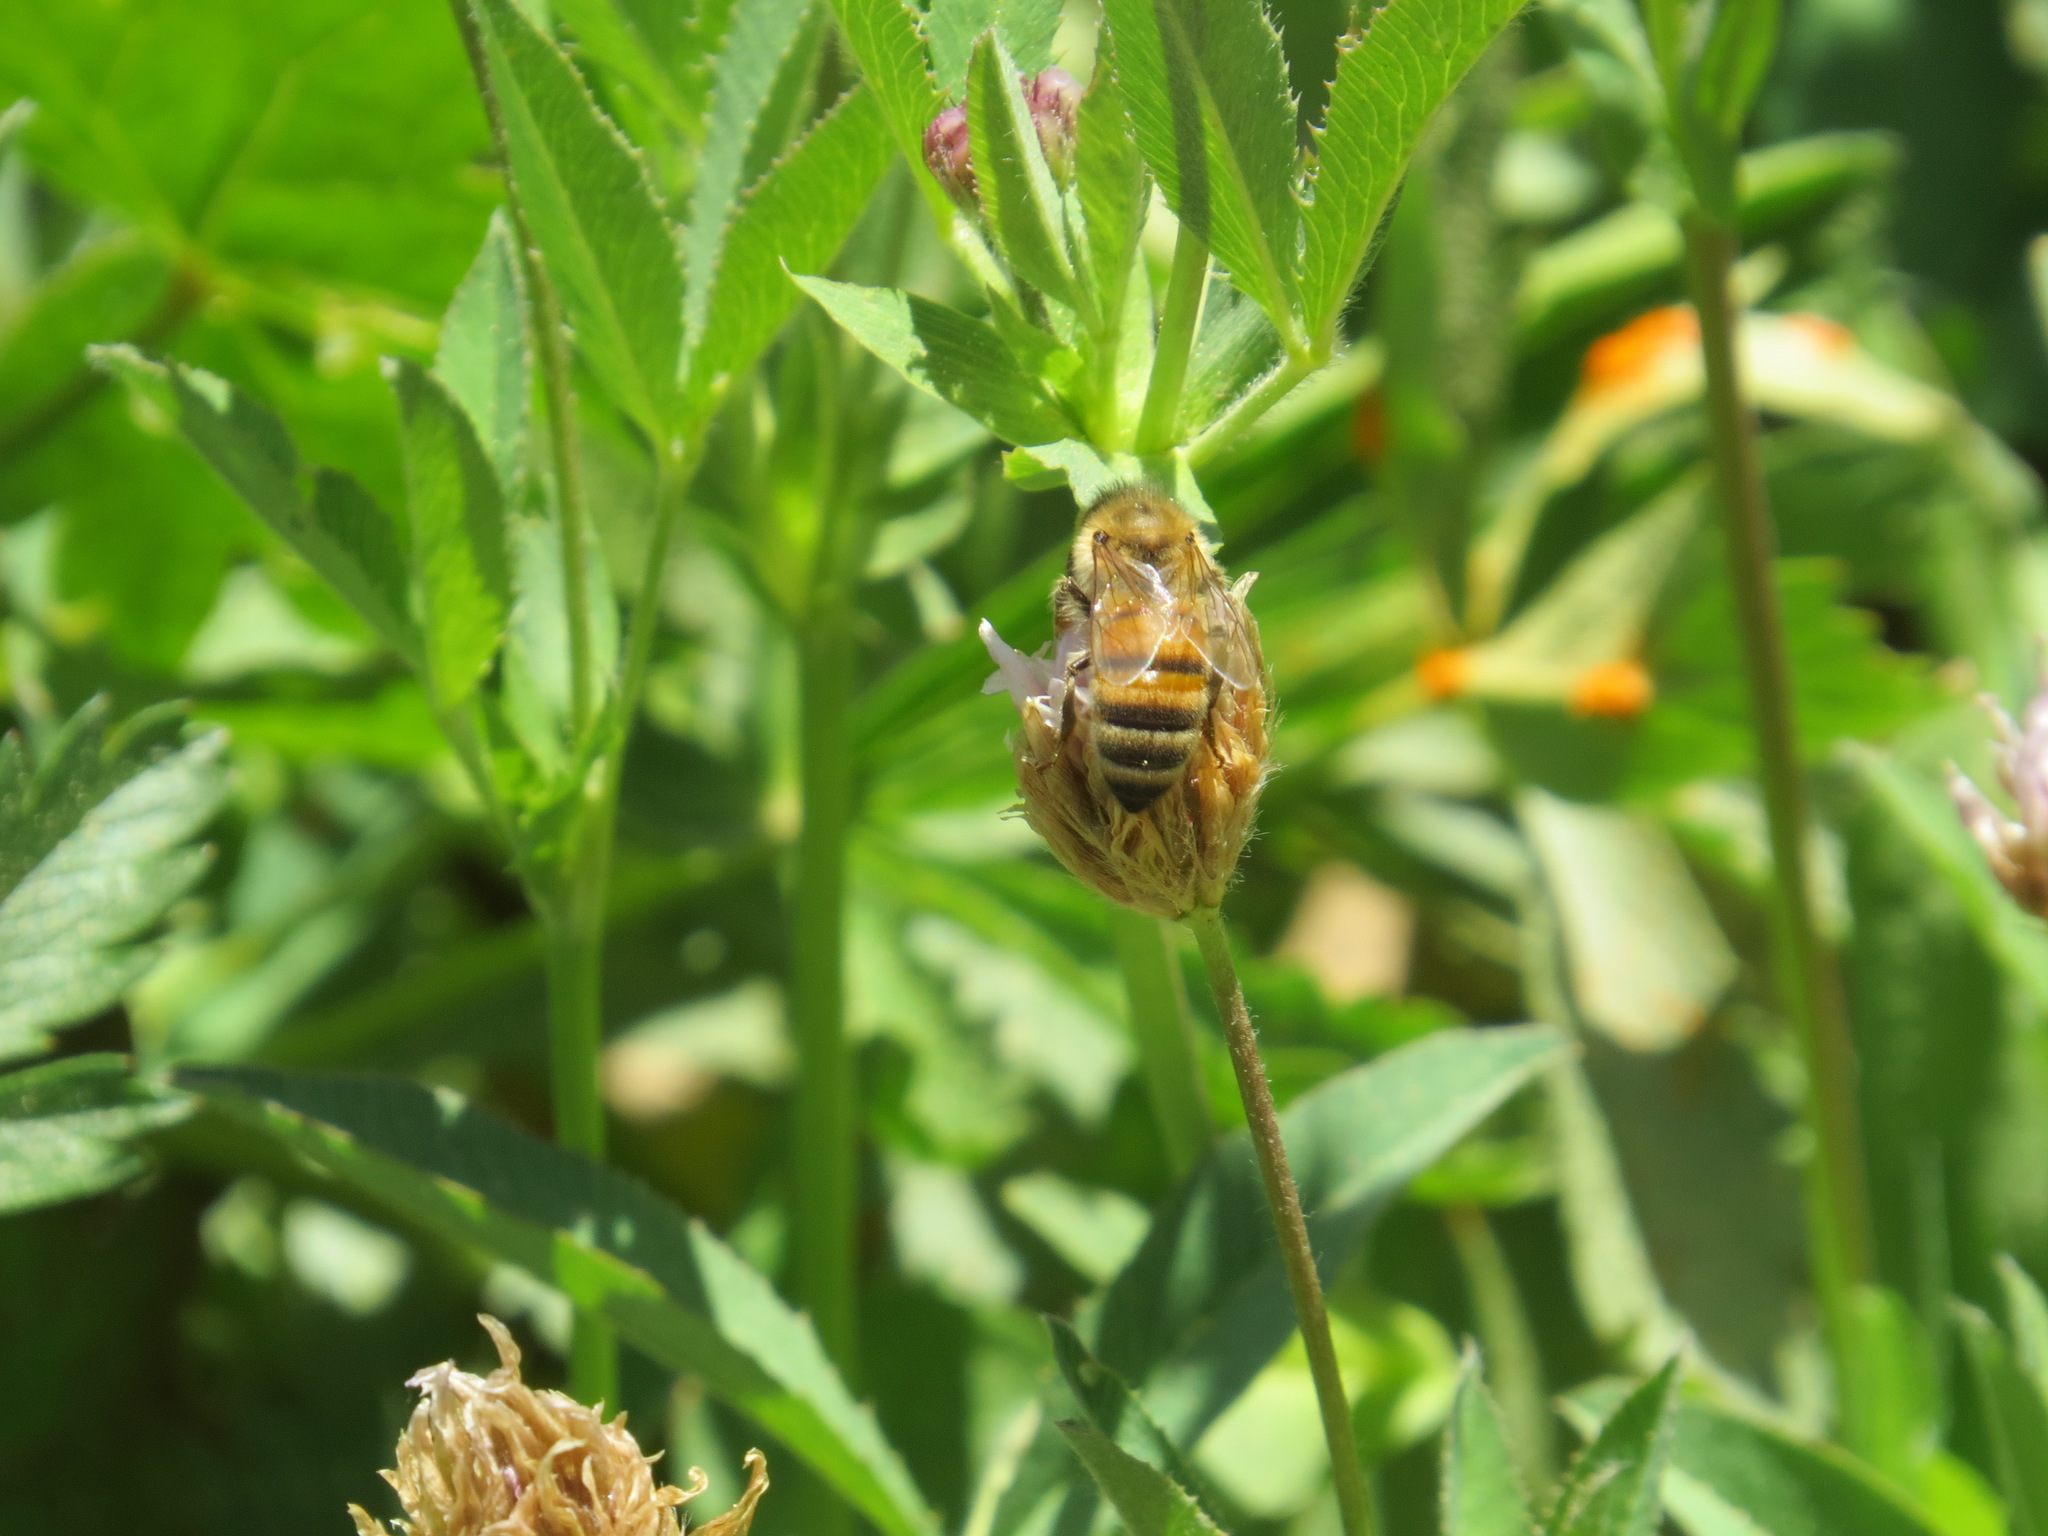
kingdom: Animalia
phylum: Arthropoda
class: Insecta
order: Hymenoptera
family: Apidae
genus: Apis
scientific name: Apis mellifera
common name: Honey bee
